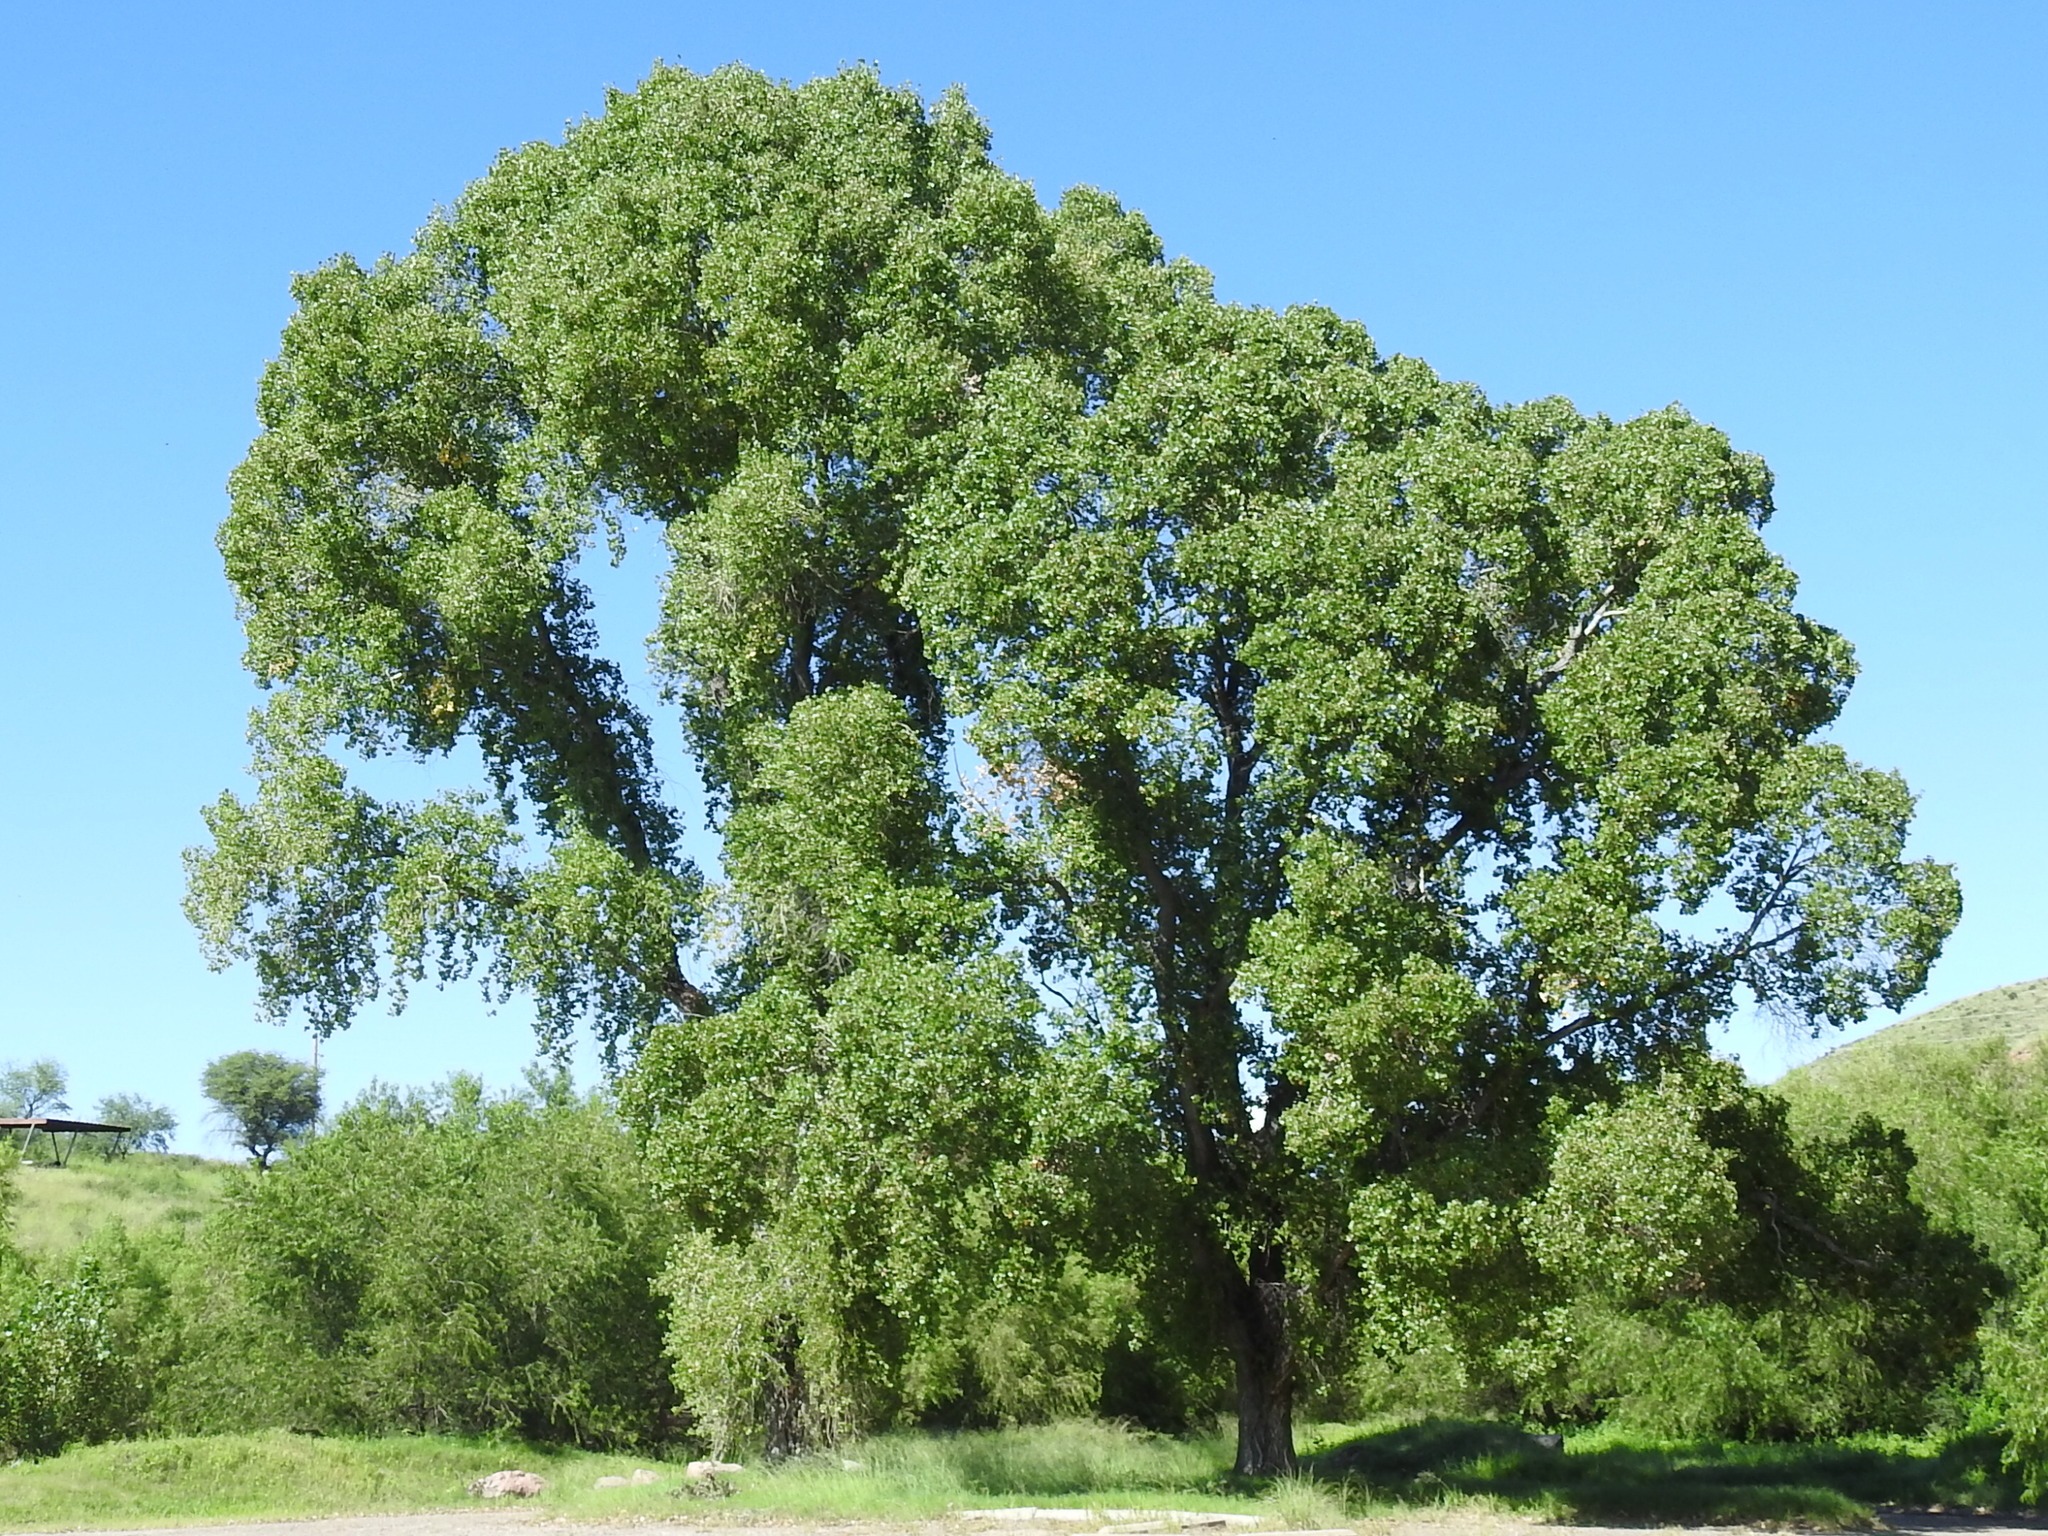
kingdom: Plantae
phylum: Tracheophyta
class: Magnoliopsida
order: Malpighiales
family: Salicaceae
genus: Populus
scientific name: Populus fremontii
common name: Fremont's cottonwood
